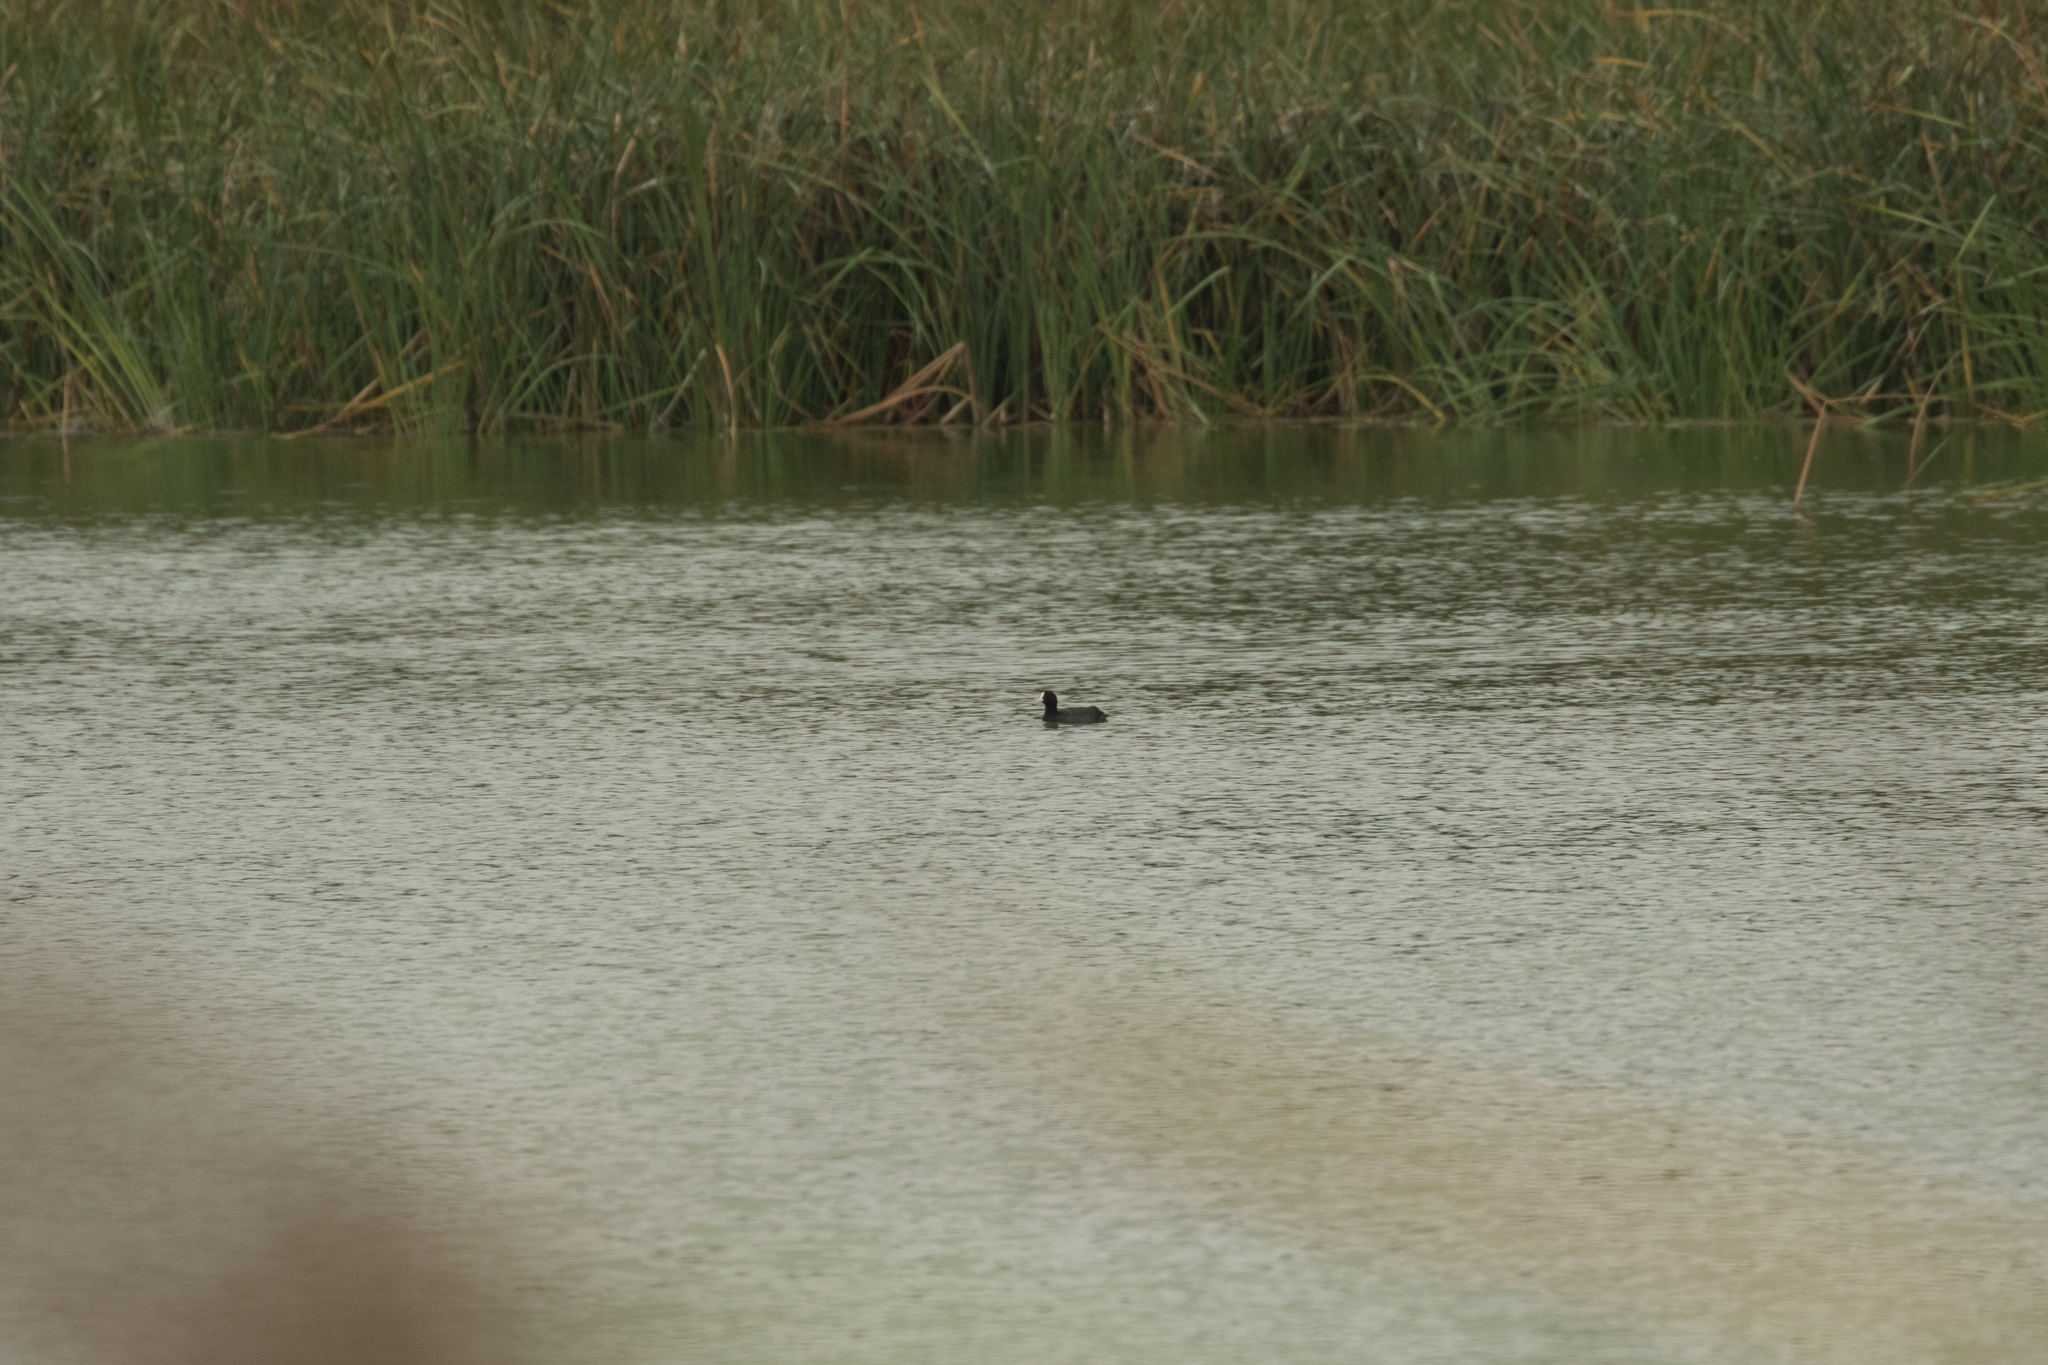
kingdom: Animalia
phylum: Chordata
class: Aves
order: Gruiformes
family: Rallidae
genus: Fulica
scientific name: Fulica atra
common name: Eurasian coot
